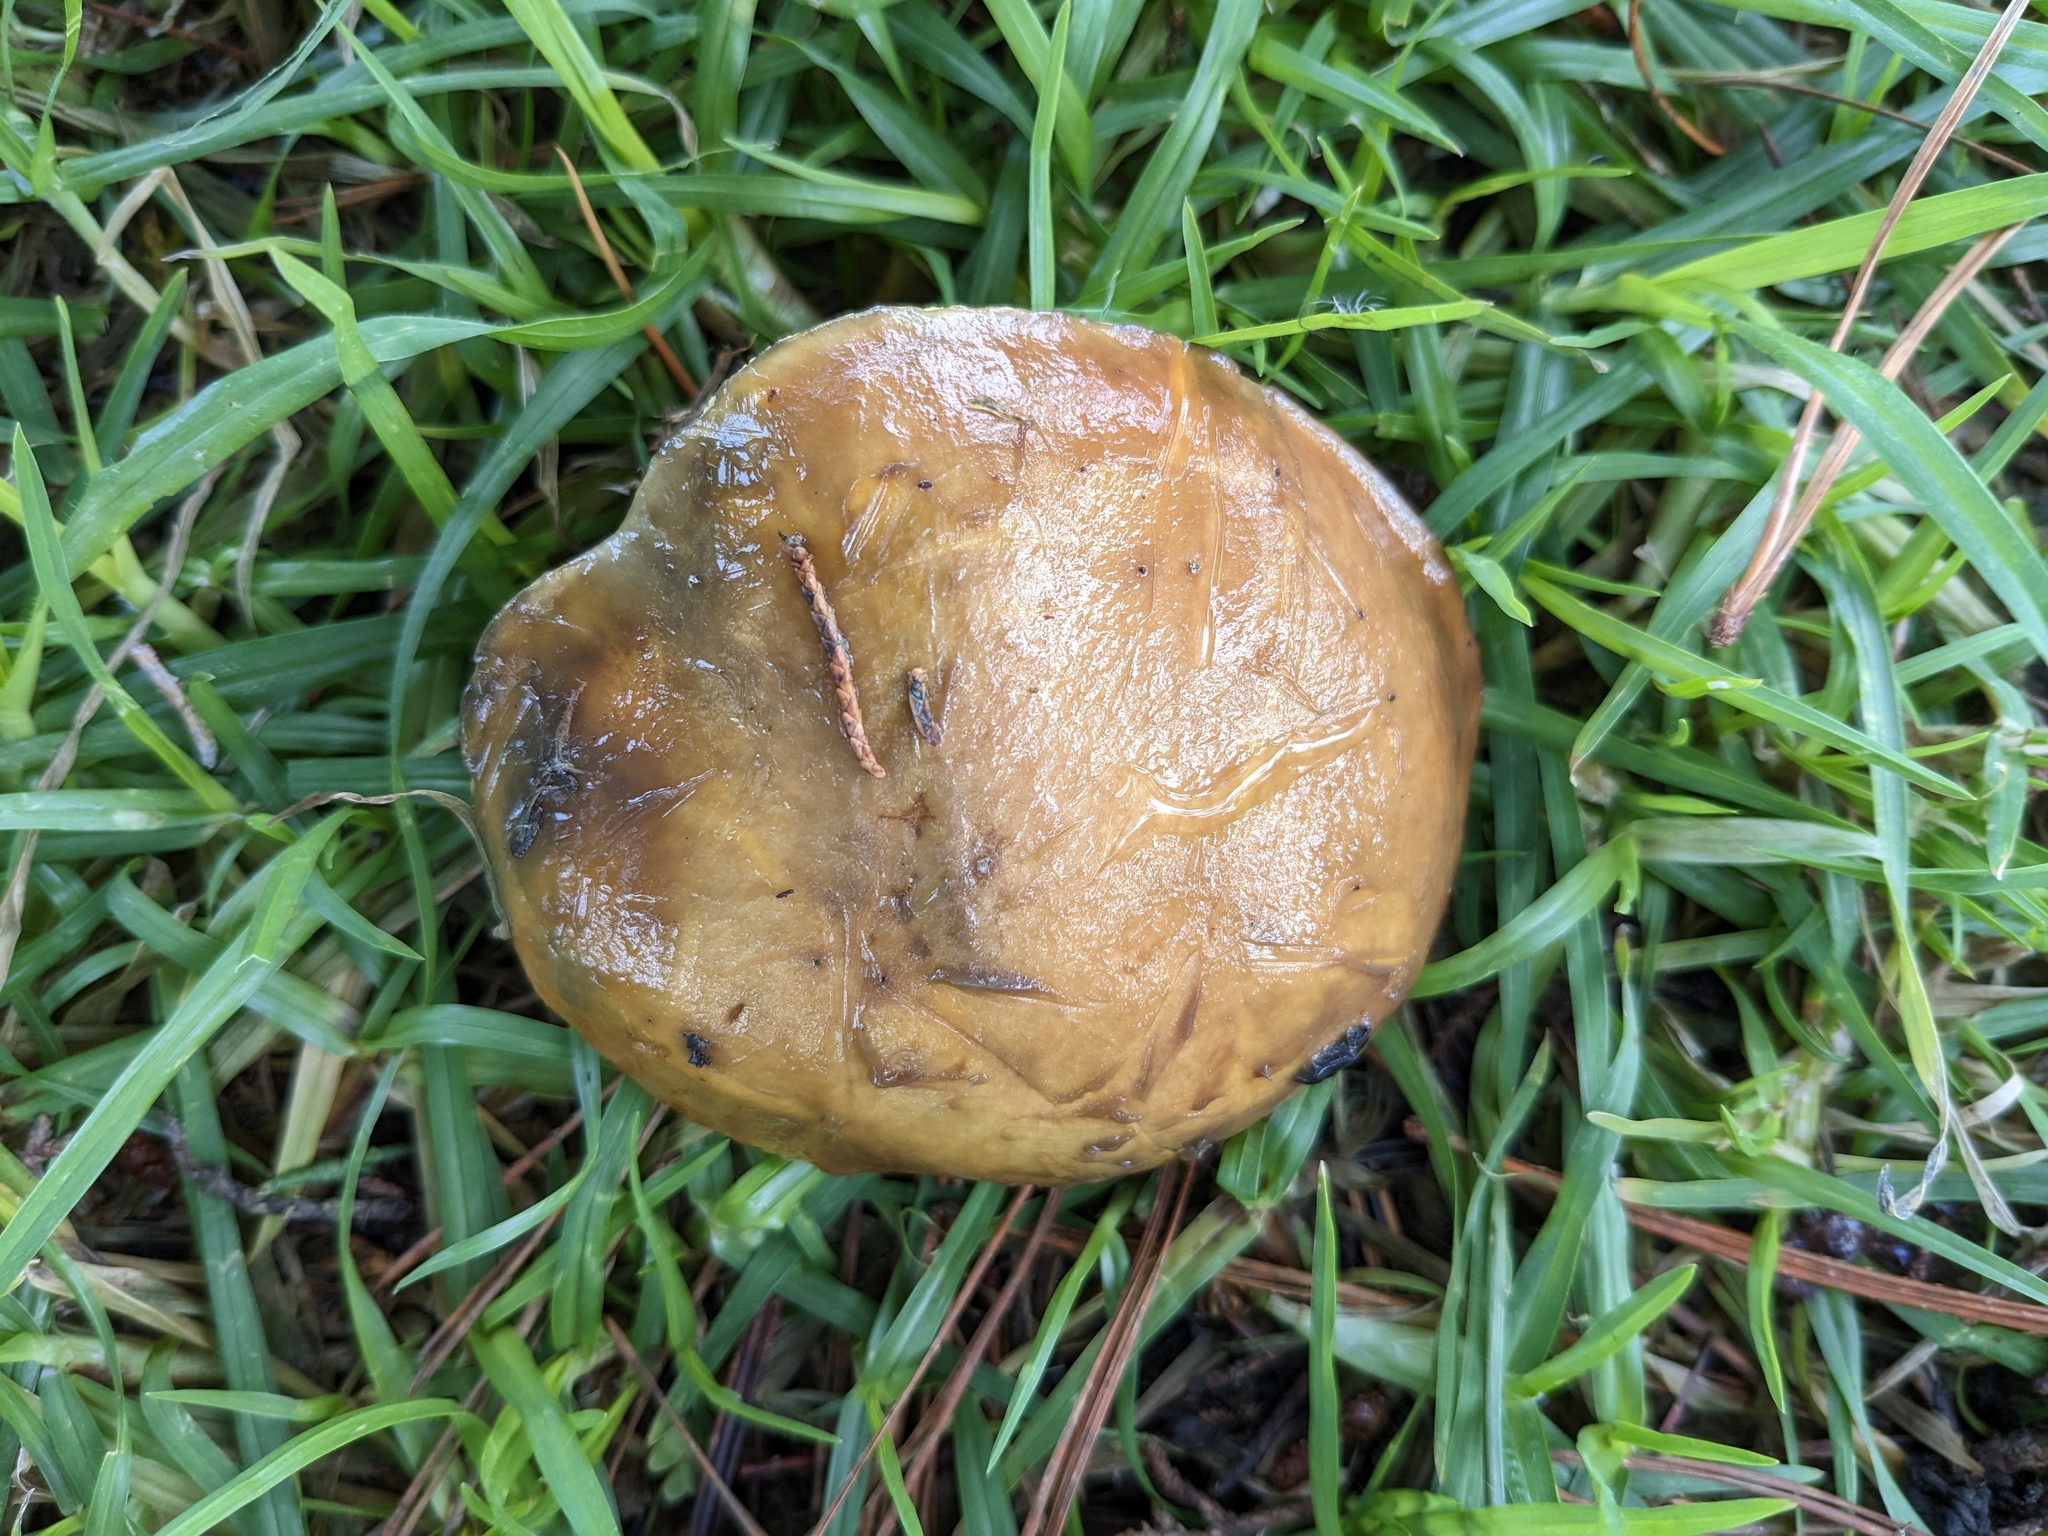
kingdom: Fungi
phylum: Basidiomycota
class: Agaricomycetes
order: Boletales
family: Suillaceae
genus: Suillus
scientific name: Suillus pungens
